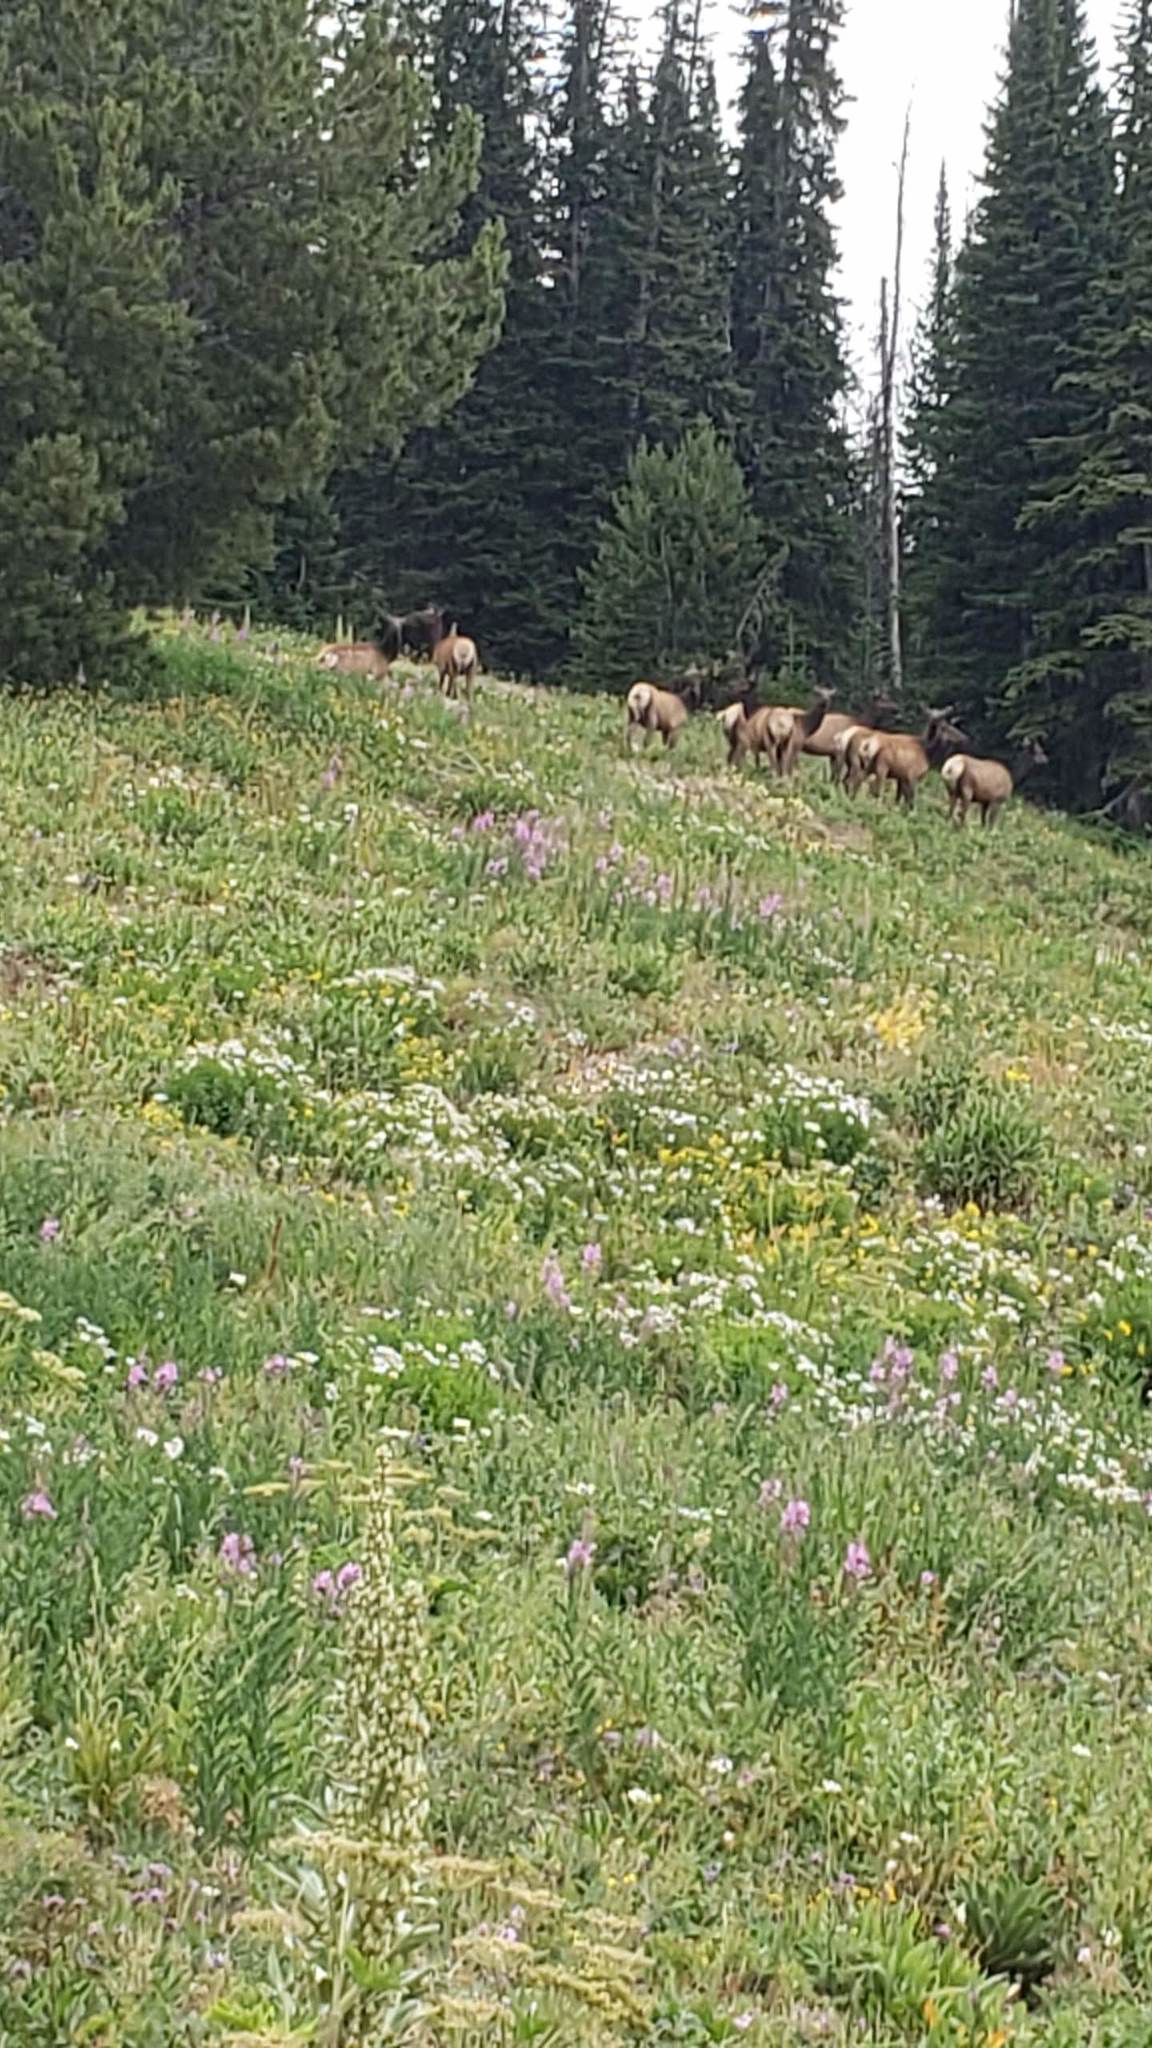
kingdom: Animalia
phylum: Chordata
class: Mammalia
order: Artiodactyla
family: Cervidae
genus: Cervus
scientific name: Cervus elaphus
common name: Red deer
